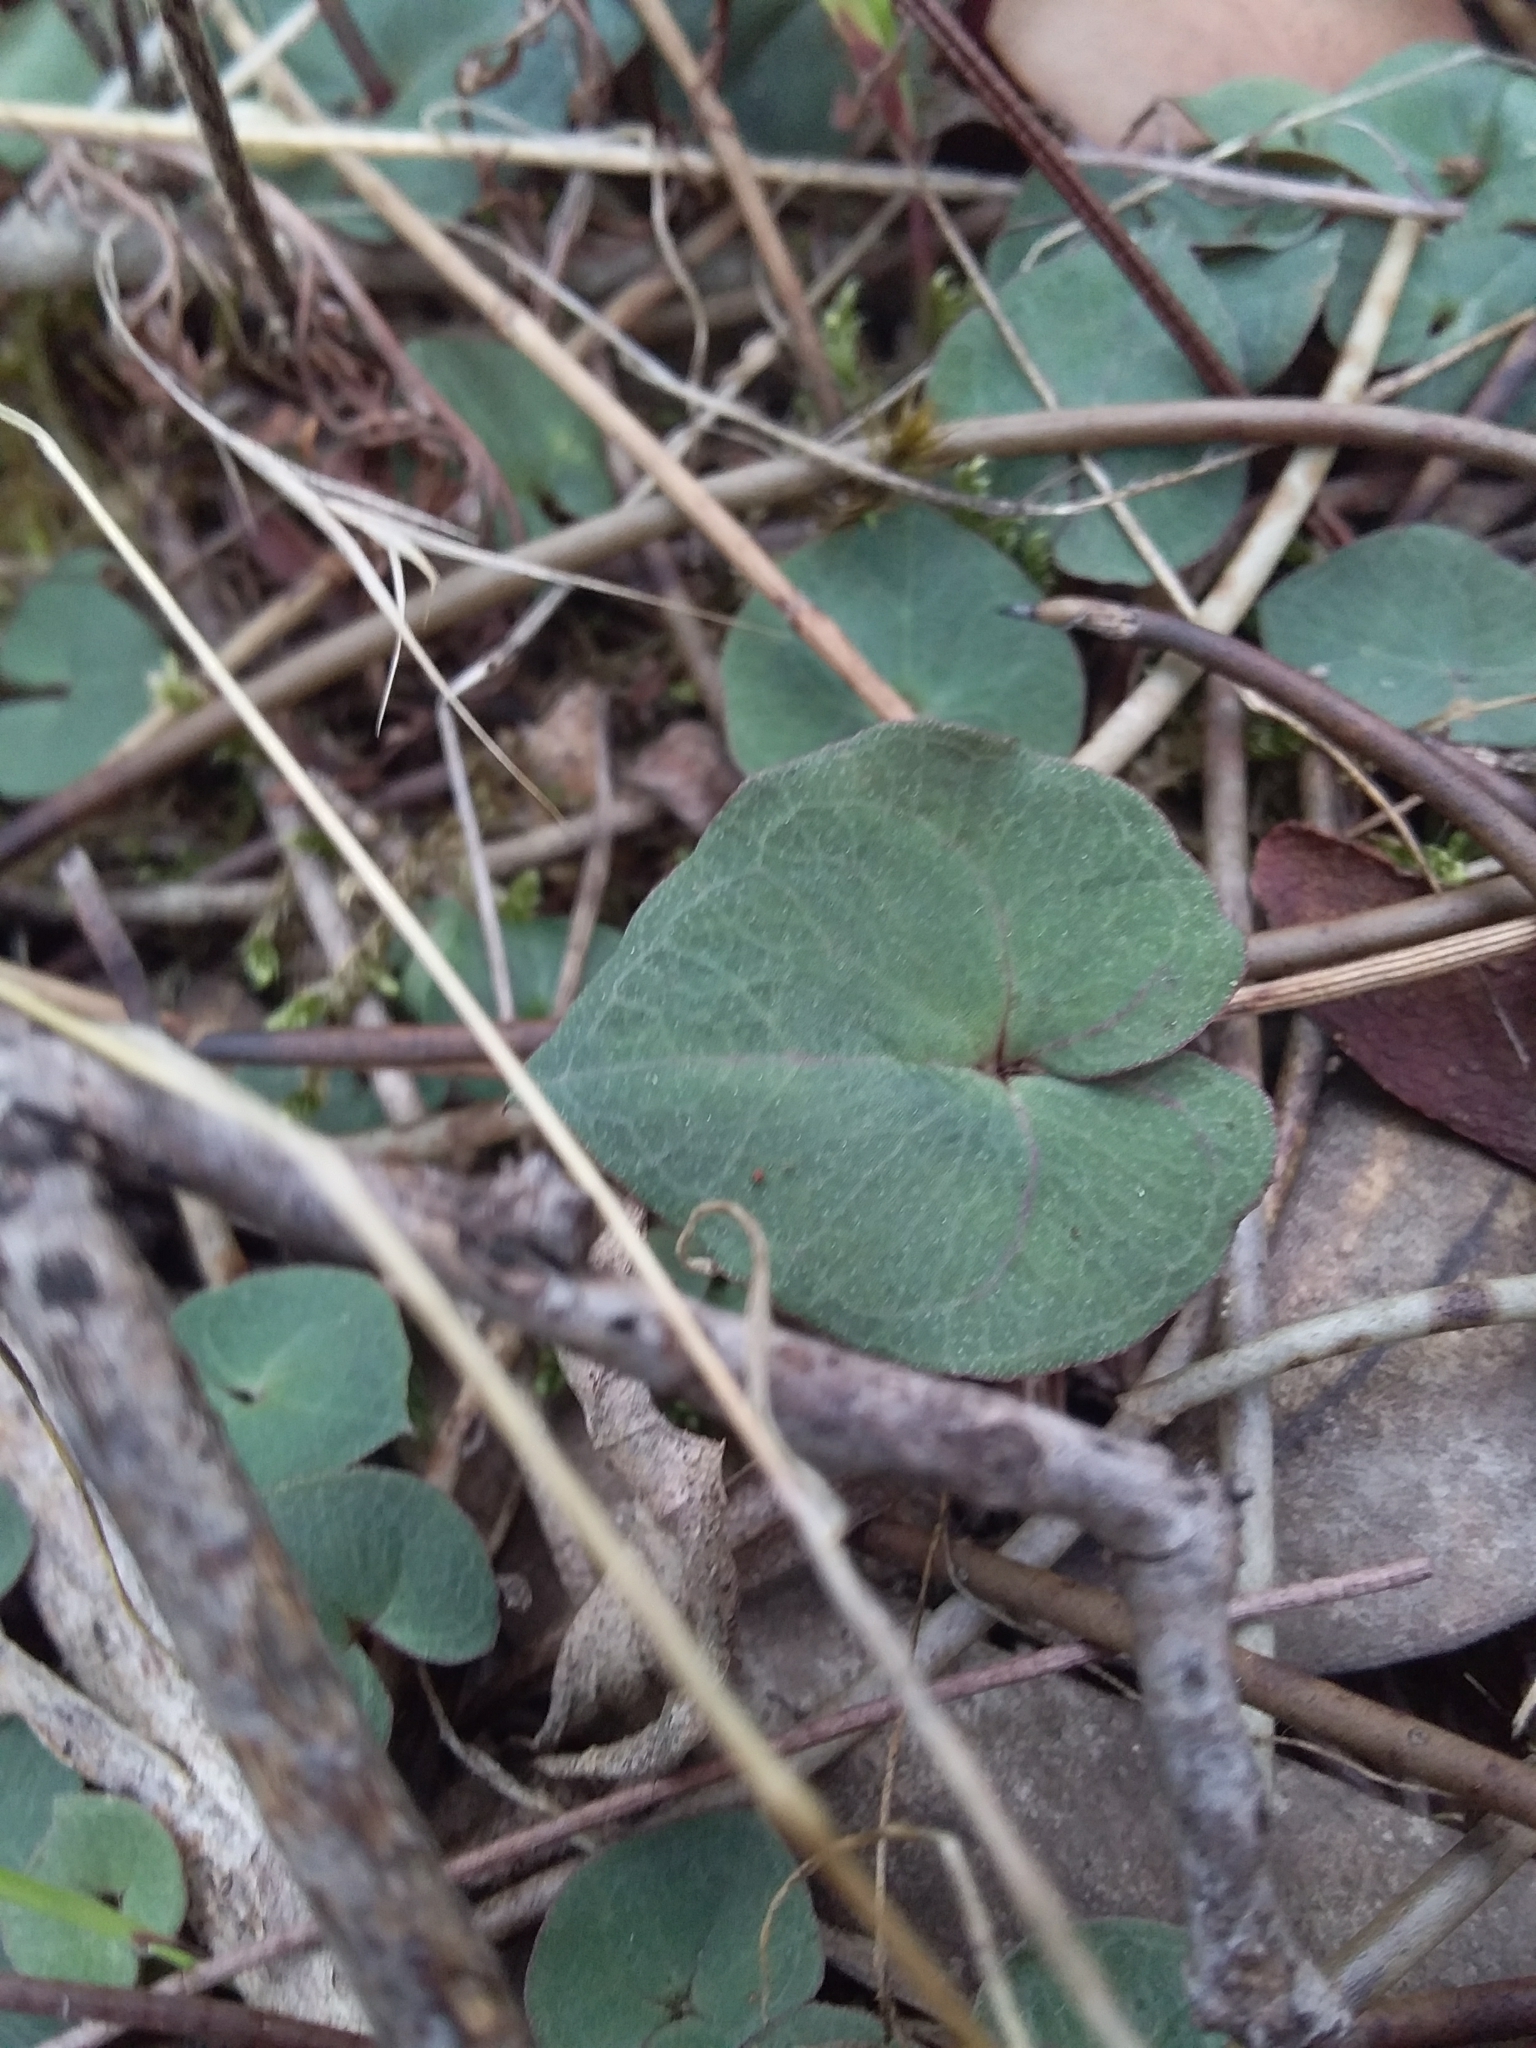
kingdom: Plantae
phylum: Tracheophyta
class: Liliopsida
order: Asparagales
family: Orchidaceae
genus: Acianthus
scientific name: Acianthus pusillus
